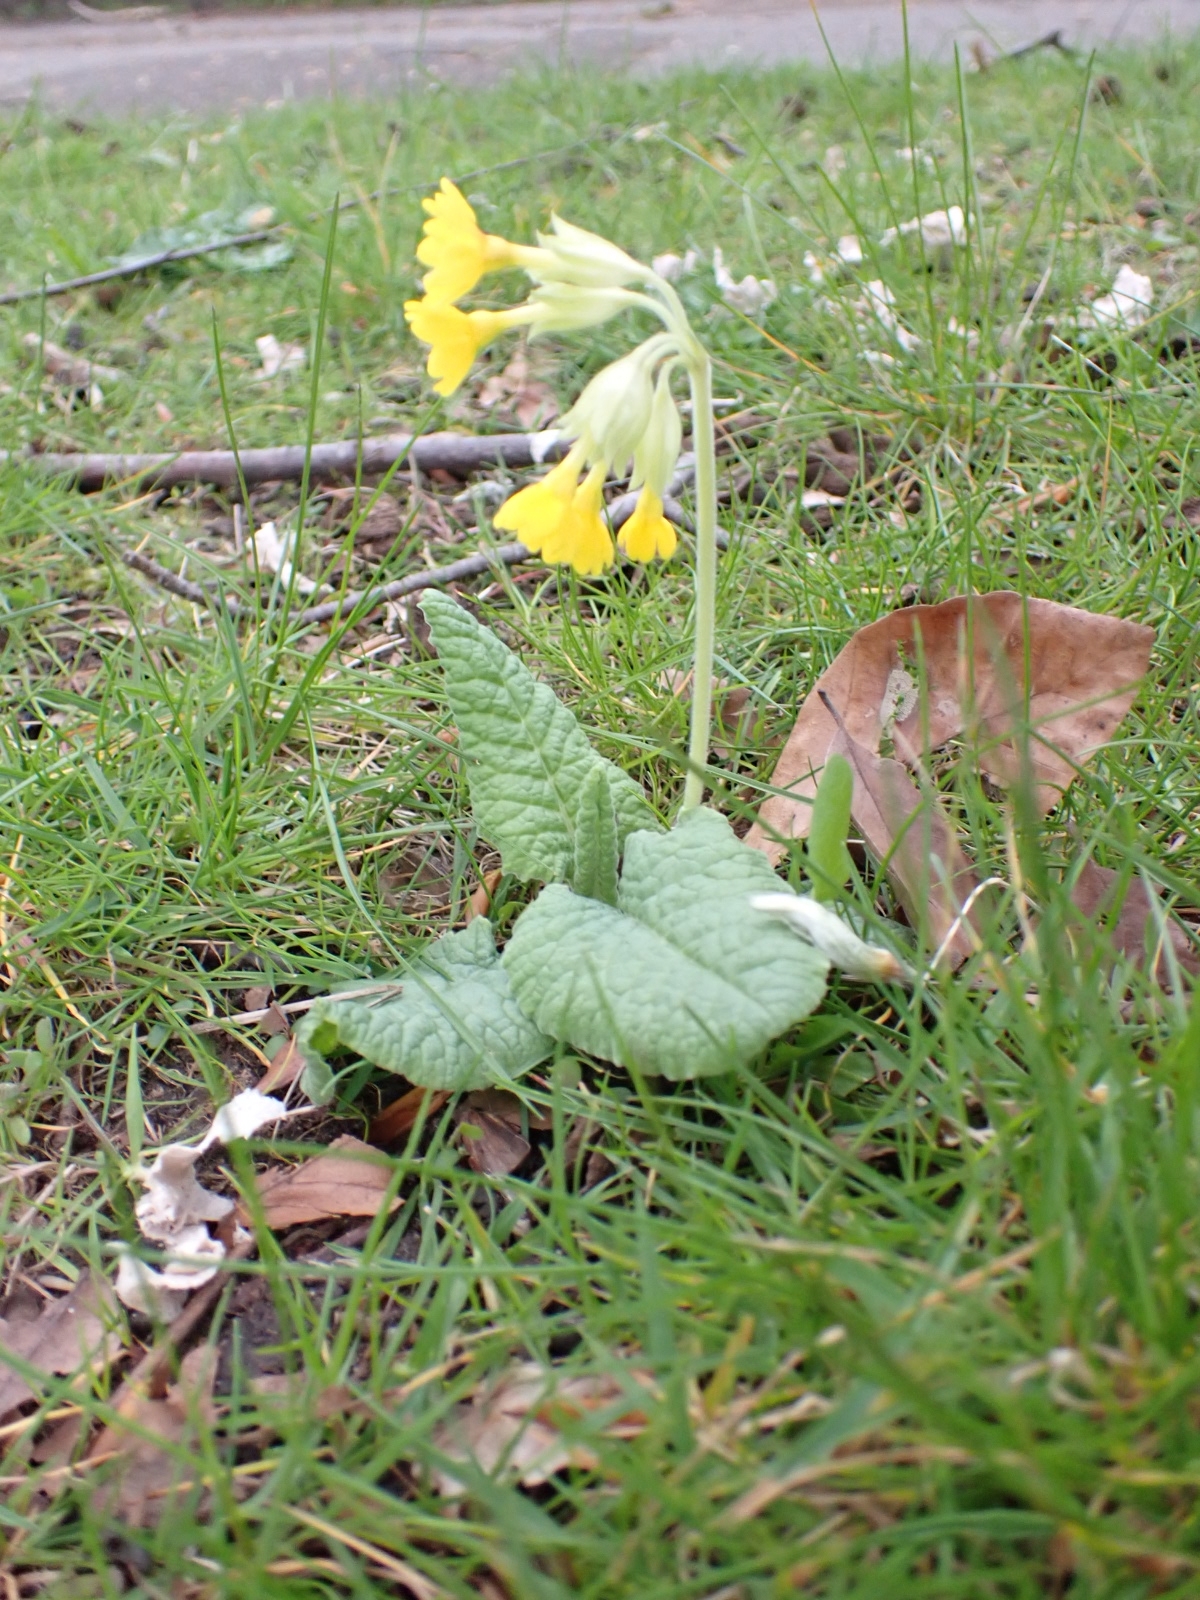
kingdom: Plantae
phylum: Tracheophyta
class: Magnoliopsida
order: Ericales
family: Primulaceae
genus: Primula
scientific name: Primula veris
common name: Cowslip
